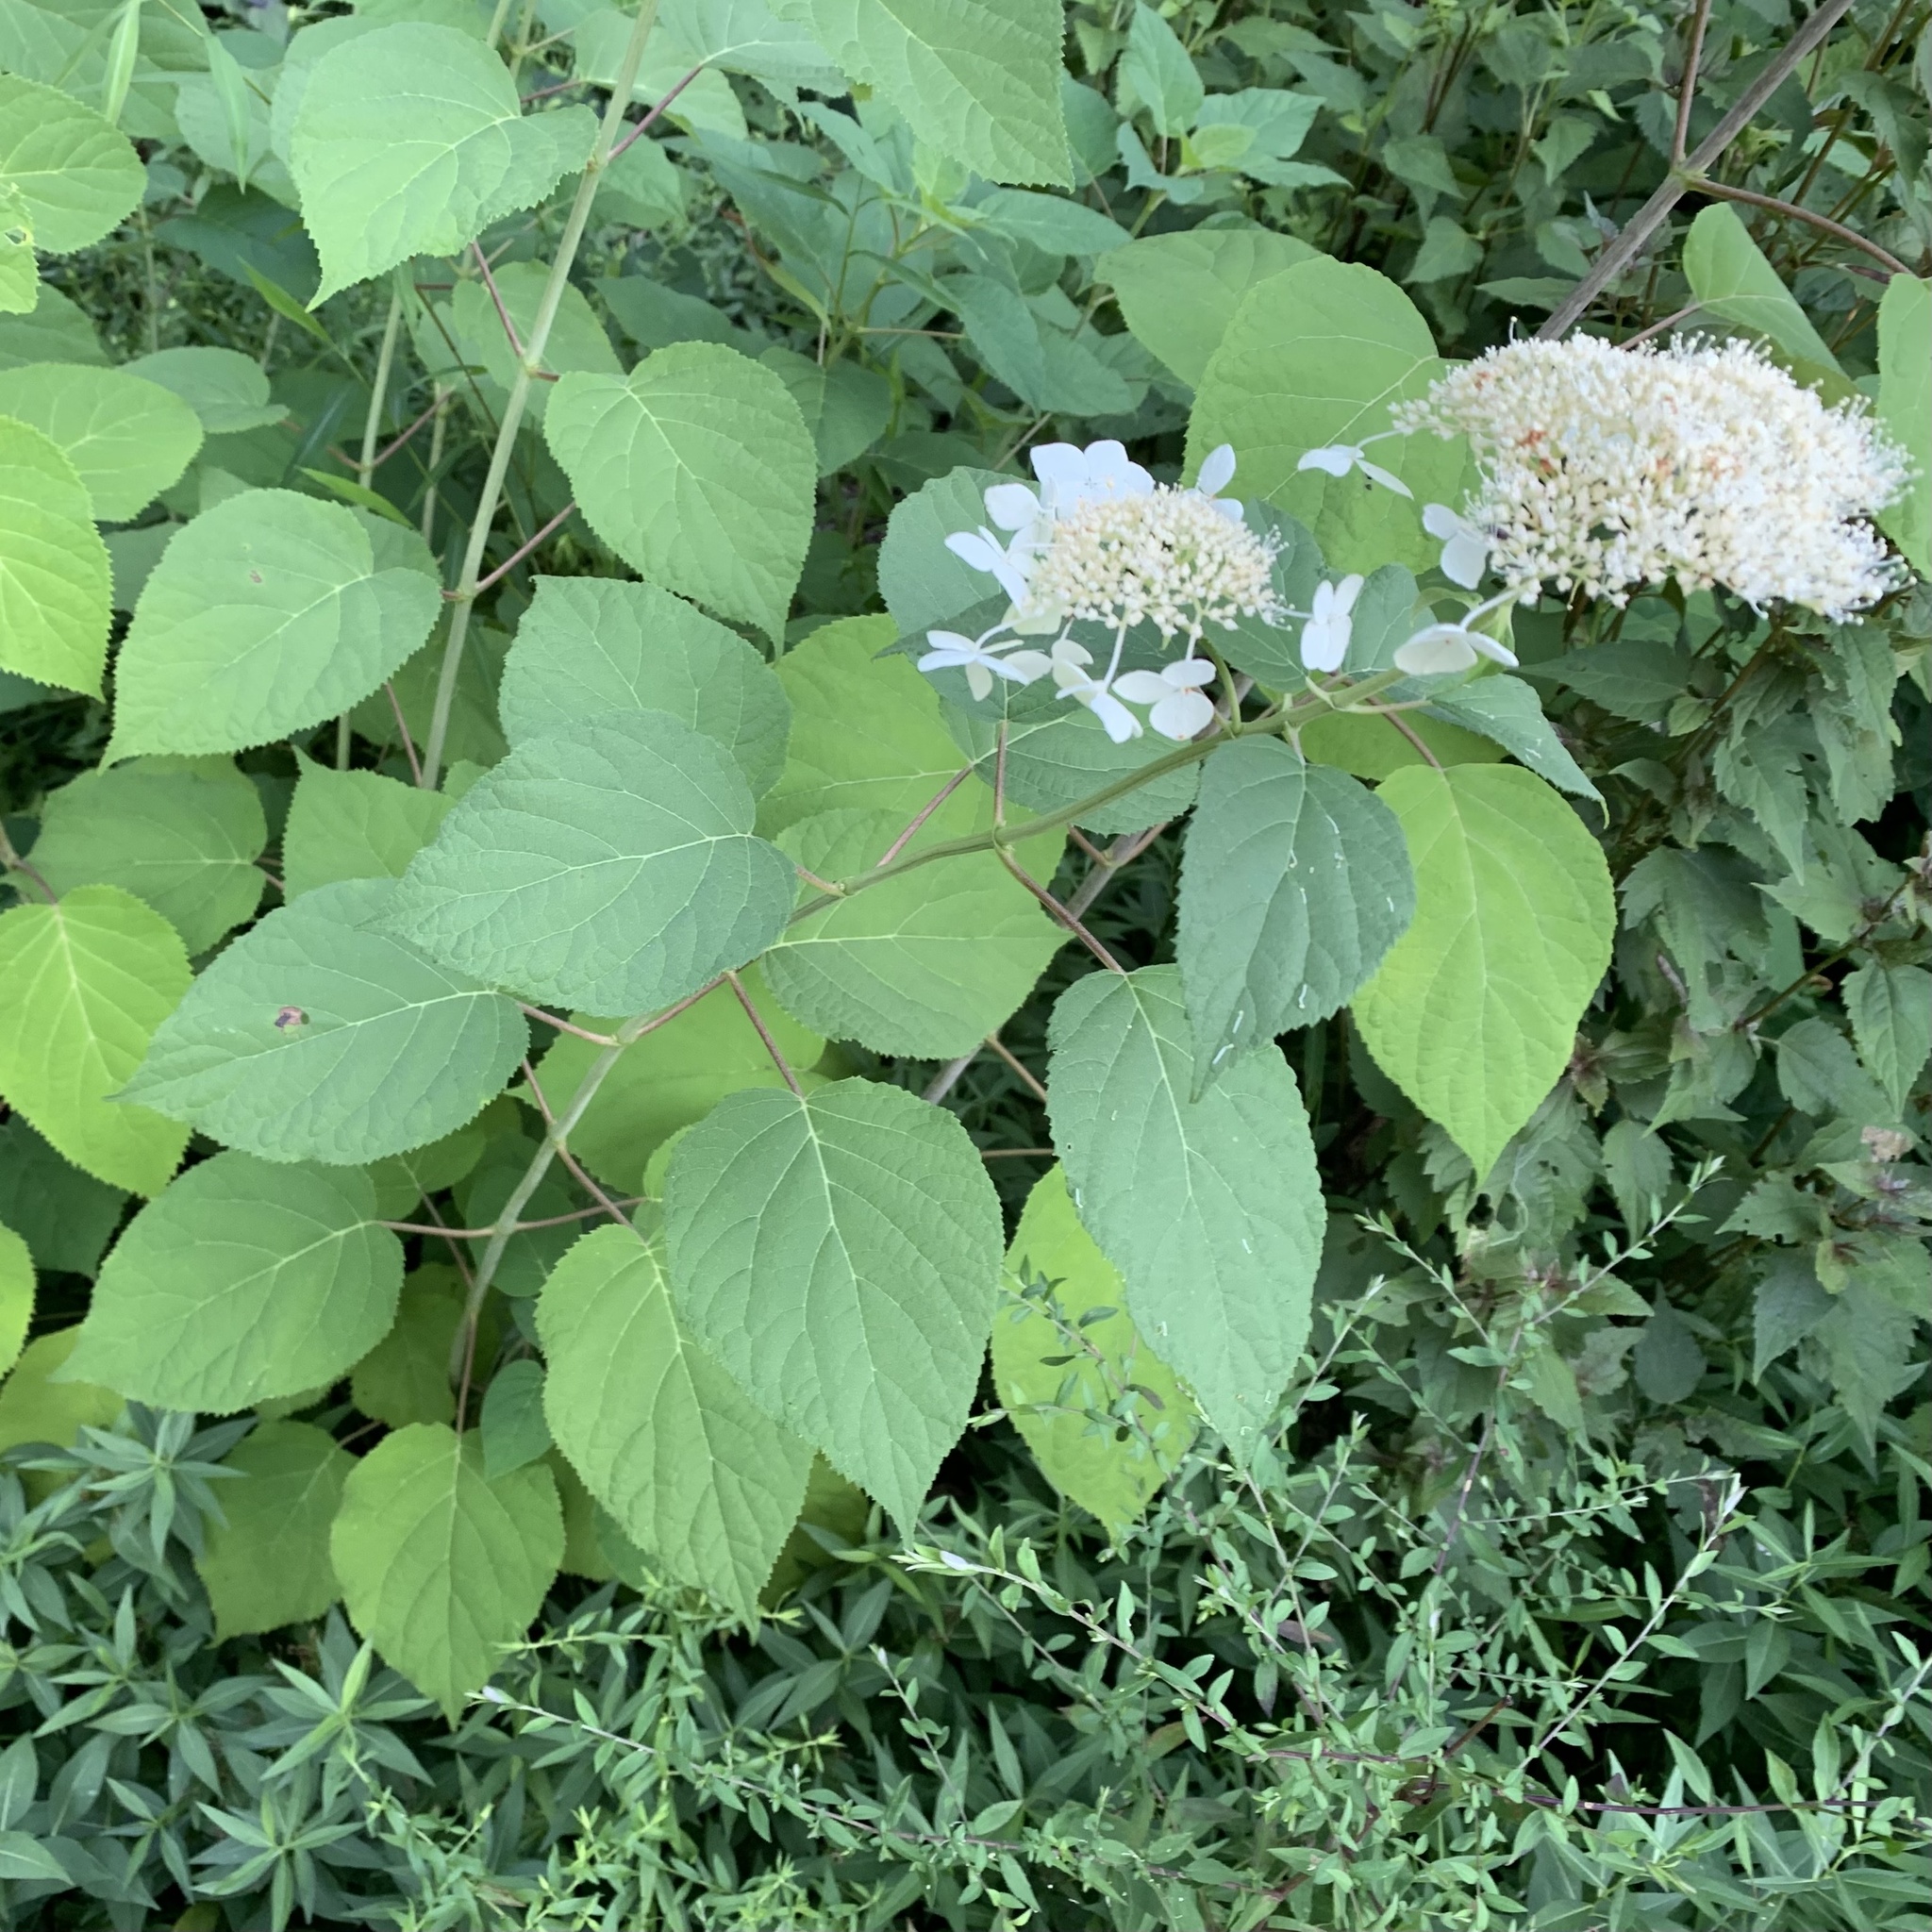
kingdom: Animalia
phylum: Arthropoda
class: Insecta
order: Lepidoptera
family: Heliozelidae
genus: Aspilanta
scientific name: Aspilanta hydrangaeella
